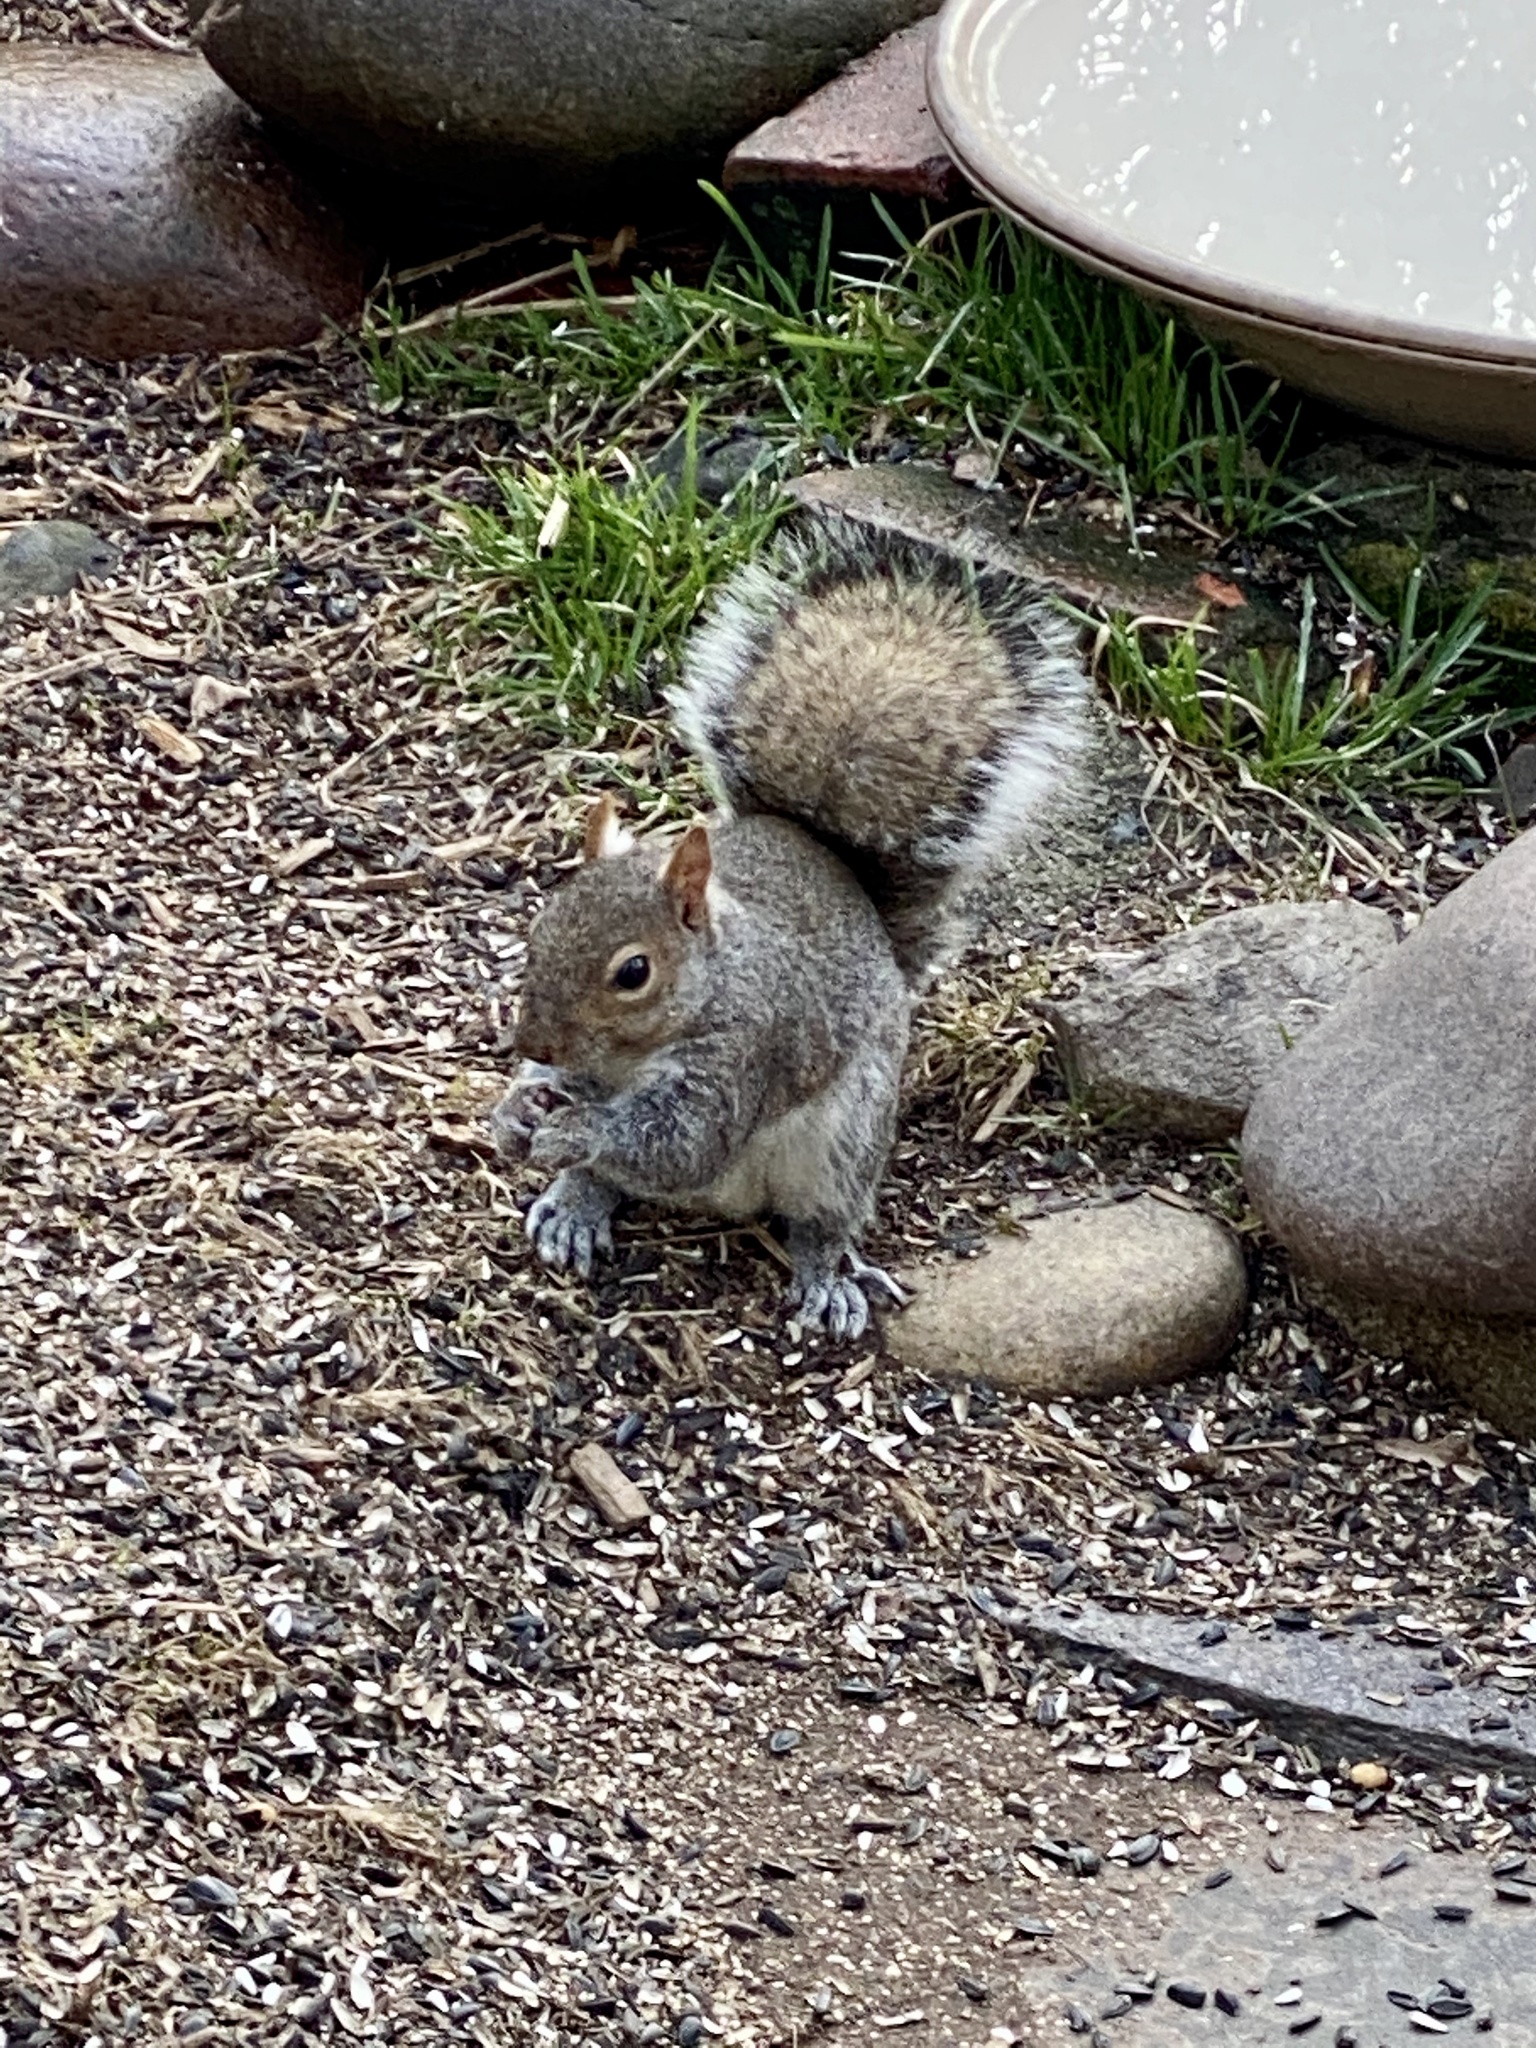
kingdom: Animalia
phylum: Chordata
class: Mammalia
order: Rodentia
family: Sciuridae
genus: Sciurus
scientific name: Sciurus carolinensis
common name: Eastern gray squirrel
